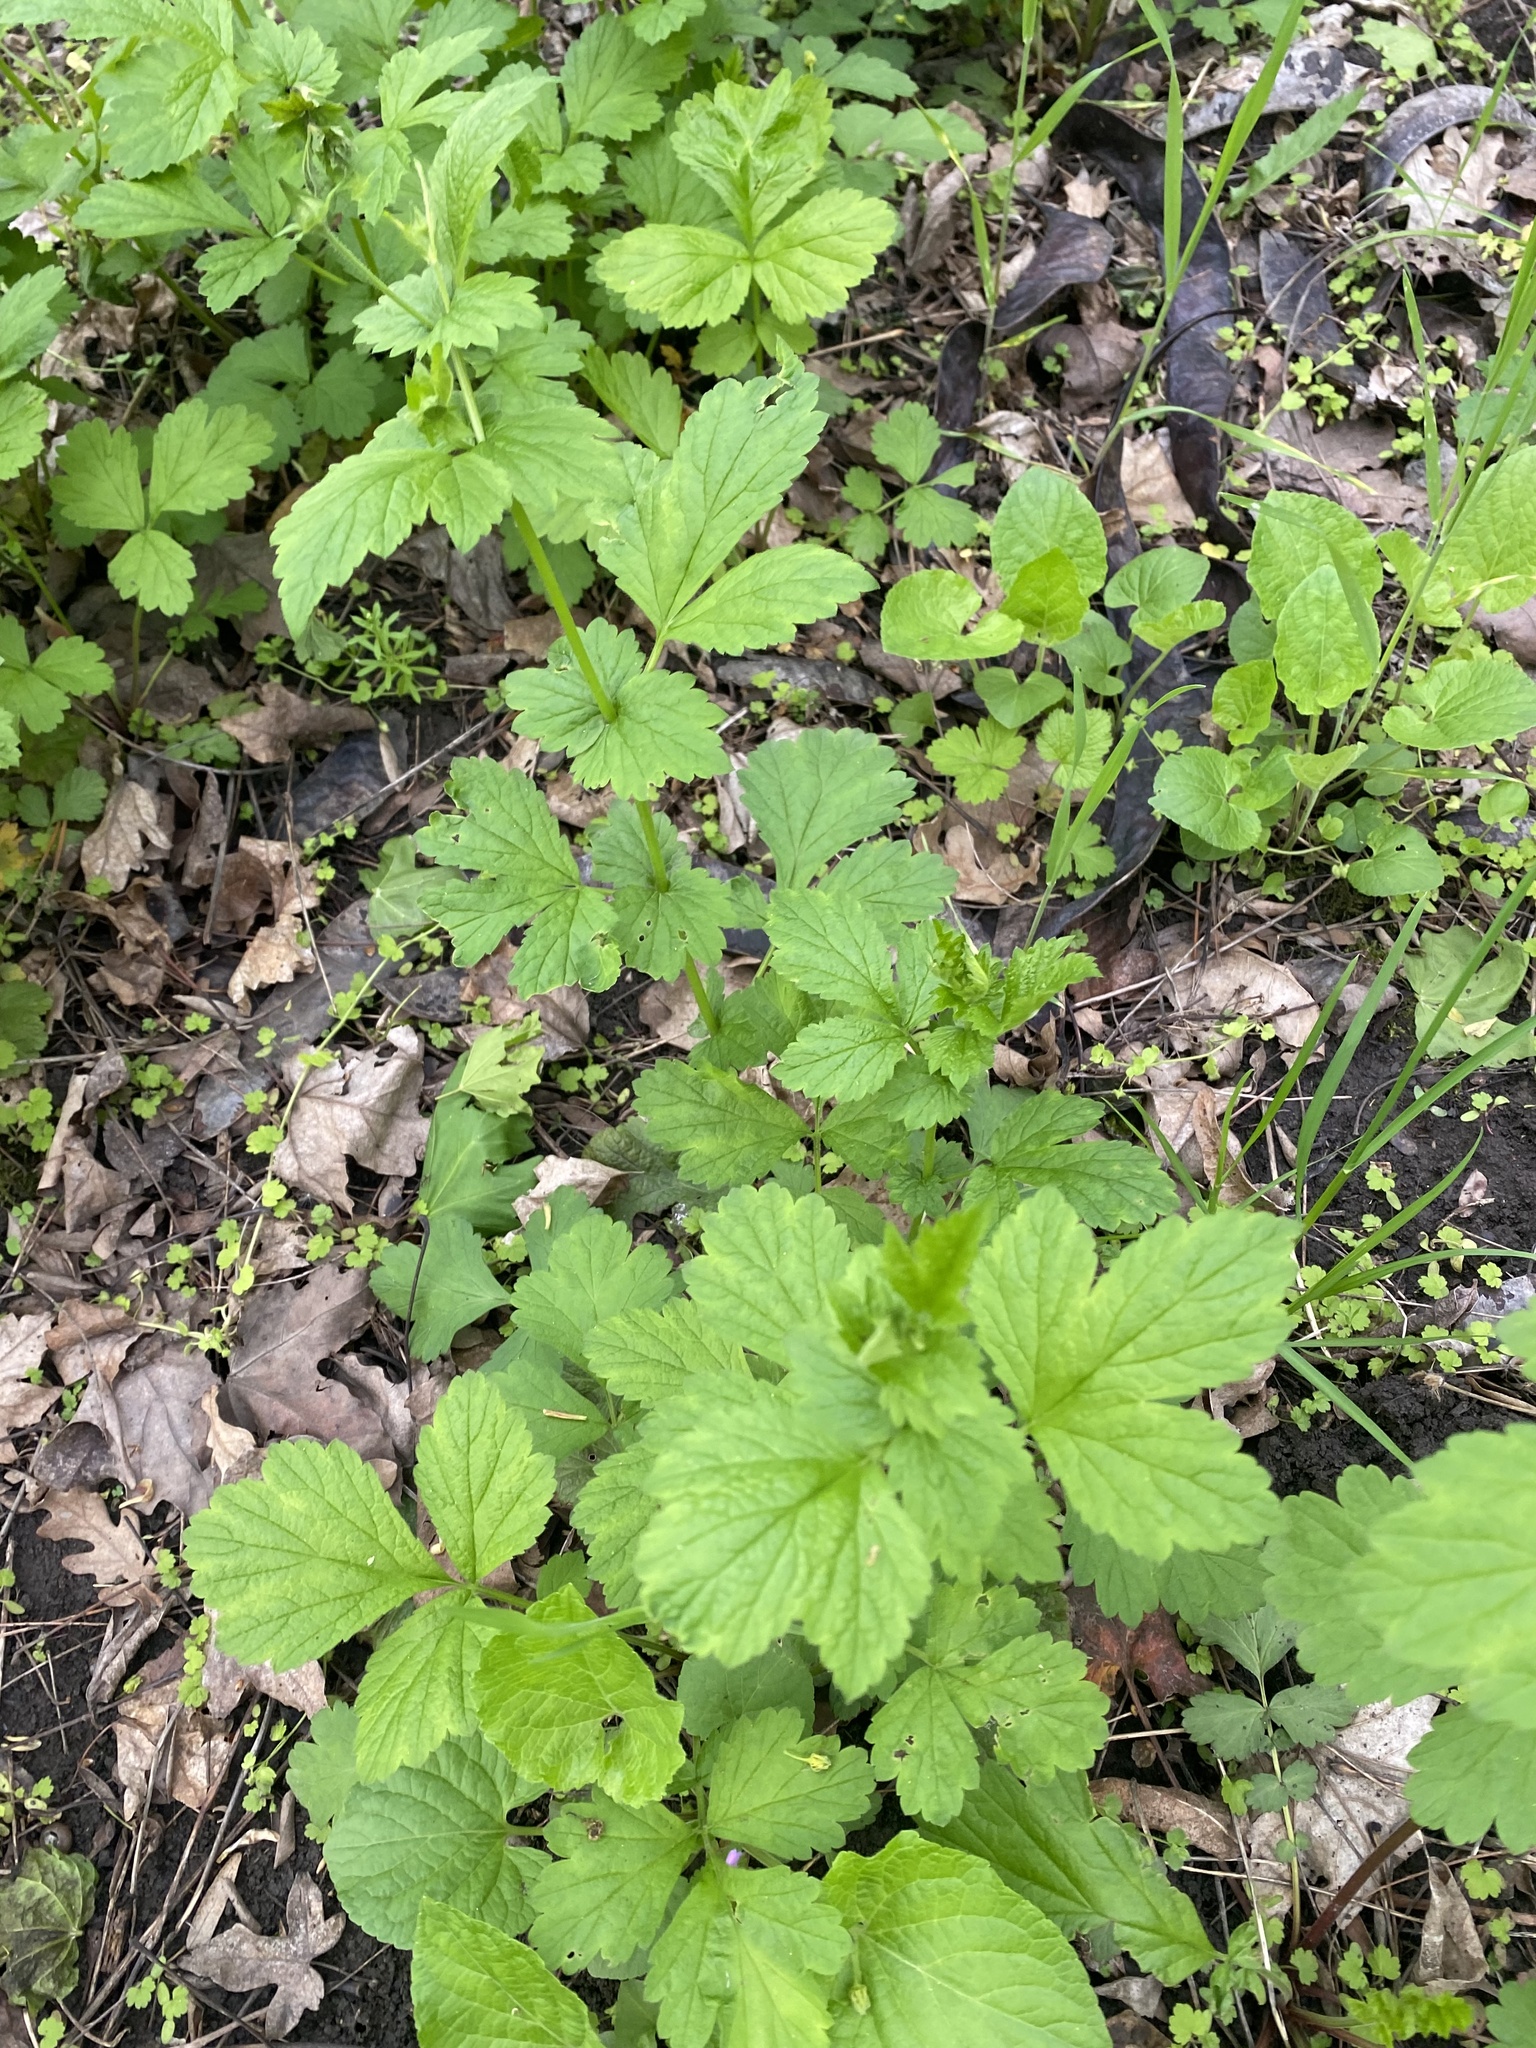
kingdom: Plantae
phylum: Tracheophyta
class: Magnoliopsida
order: Rosales
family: Rosaceae
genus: Geum
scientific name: Geum urbanum
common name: Wood avens
